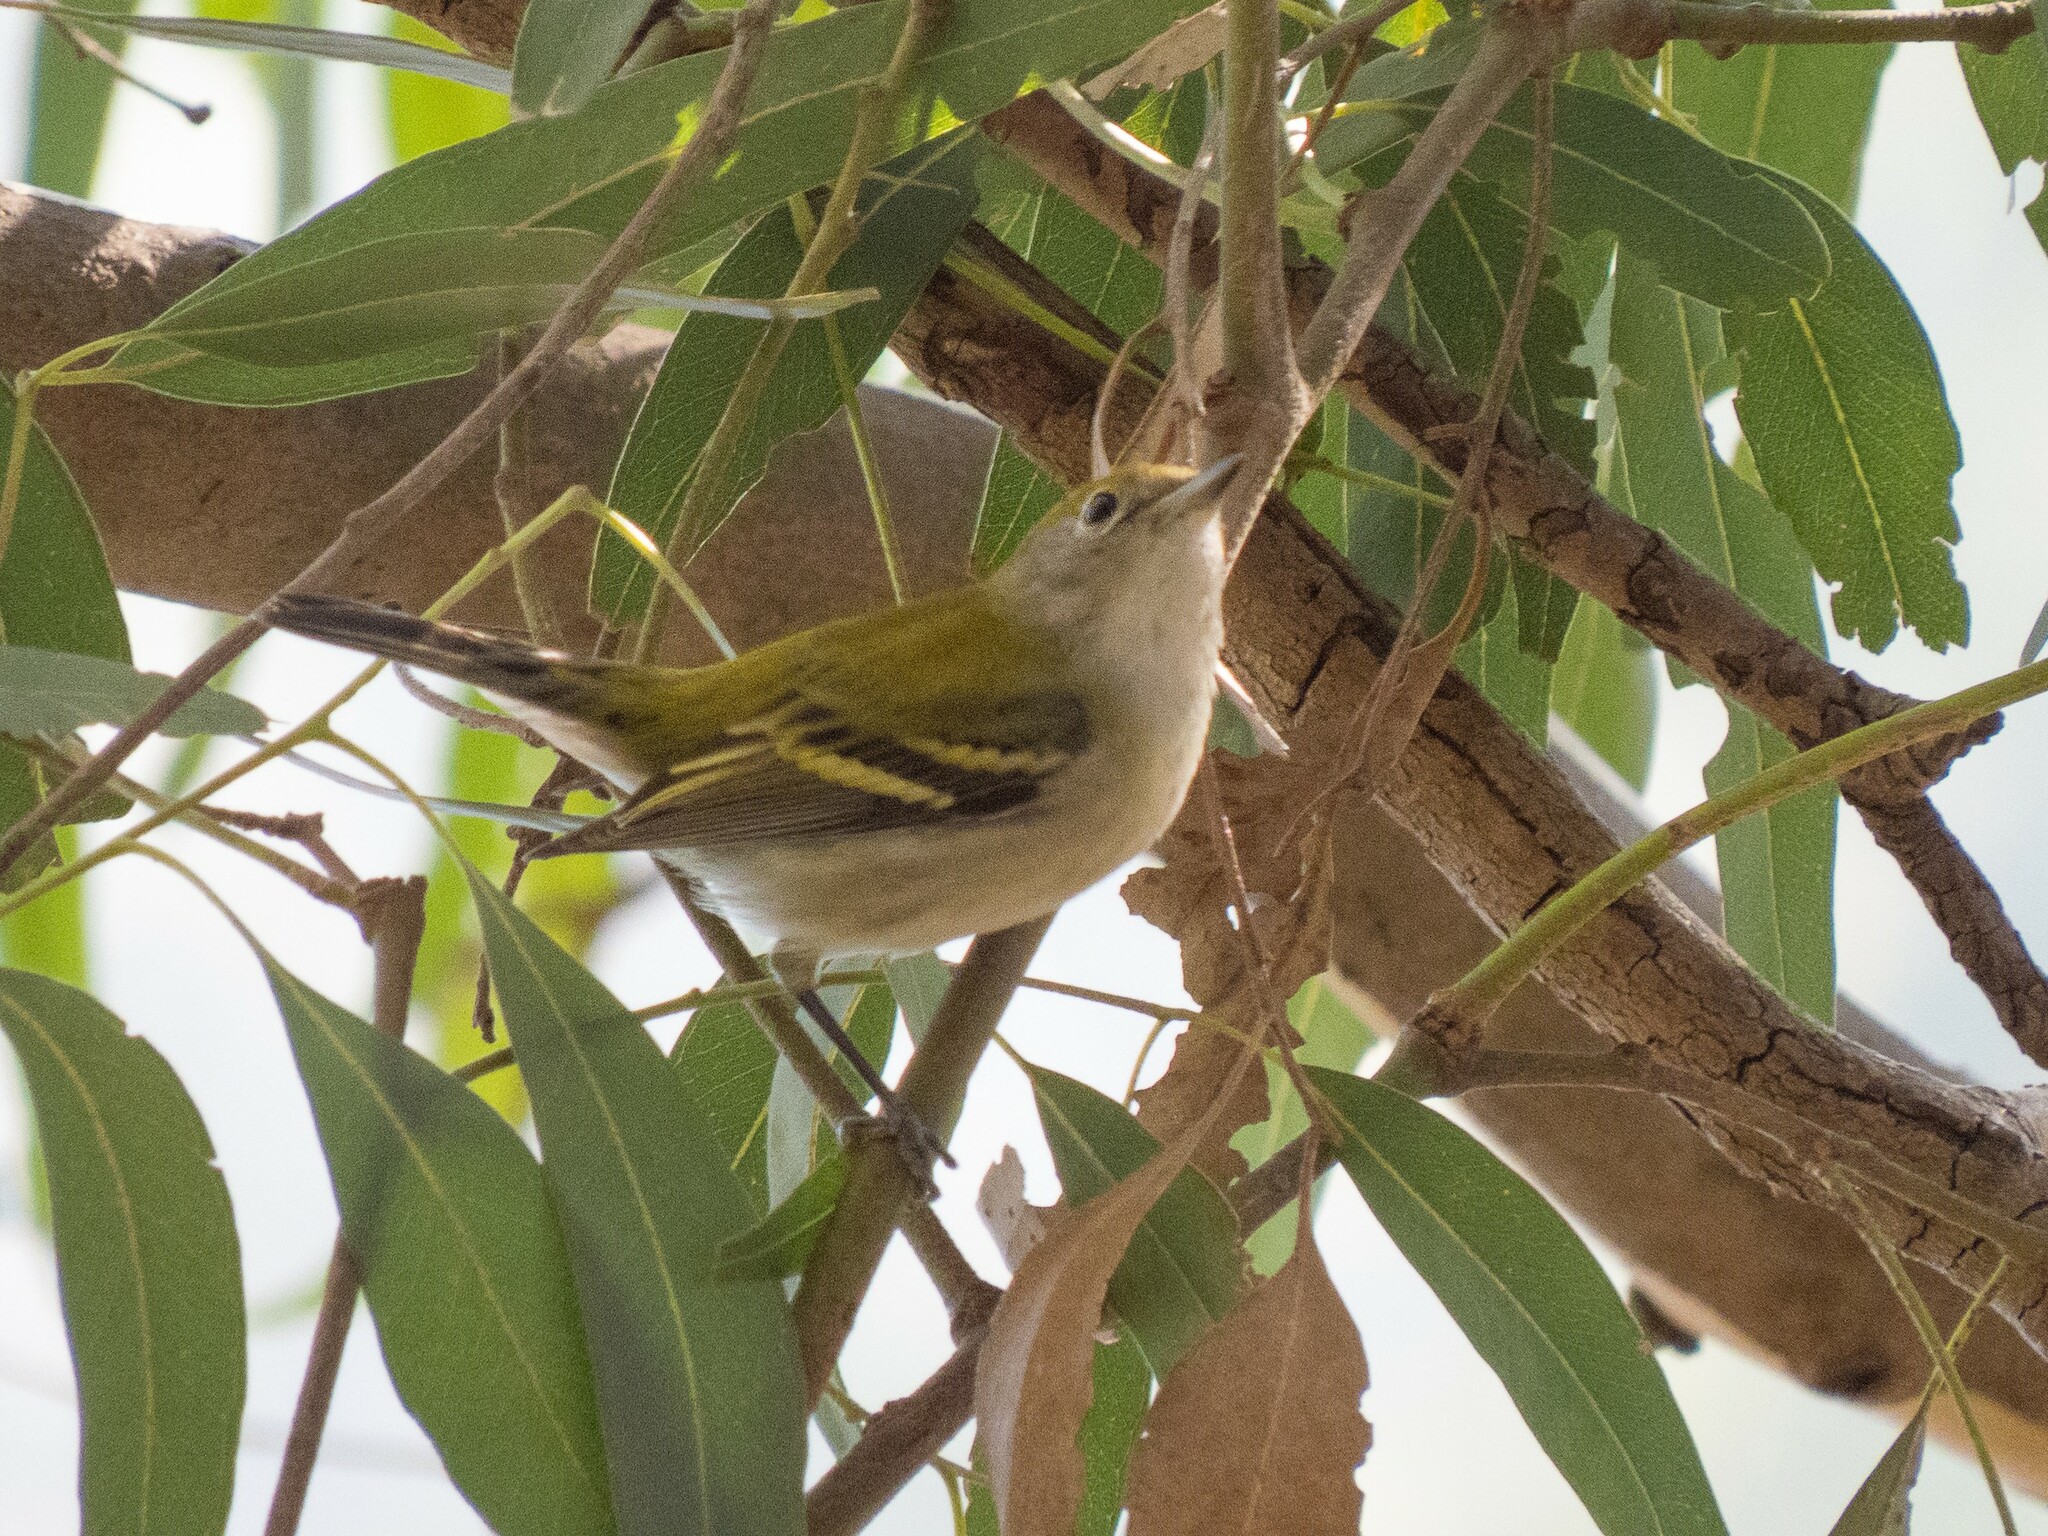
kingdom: Animalia
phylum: Chordata
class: Aves
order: Passeriformes
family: Parulidae
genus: Setophaga
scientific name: Setophaga pensylvanica
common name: Chestnut-sided warbler
